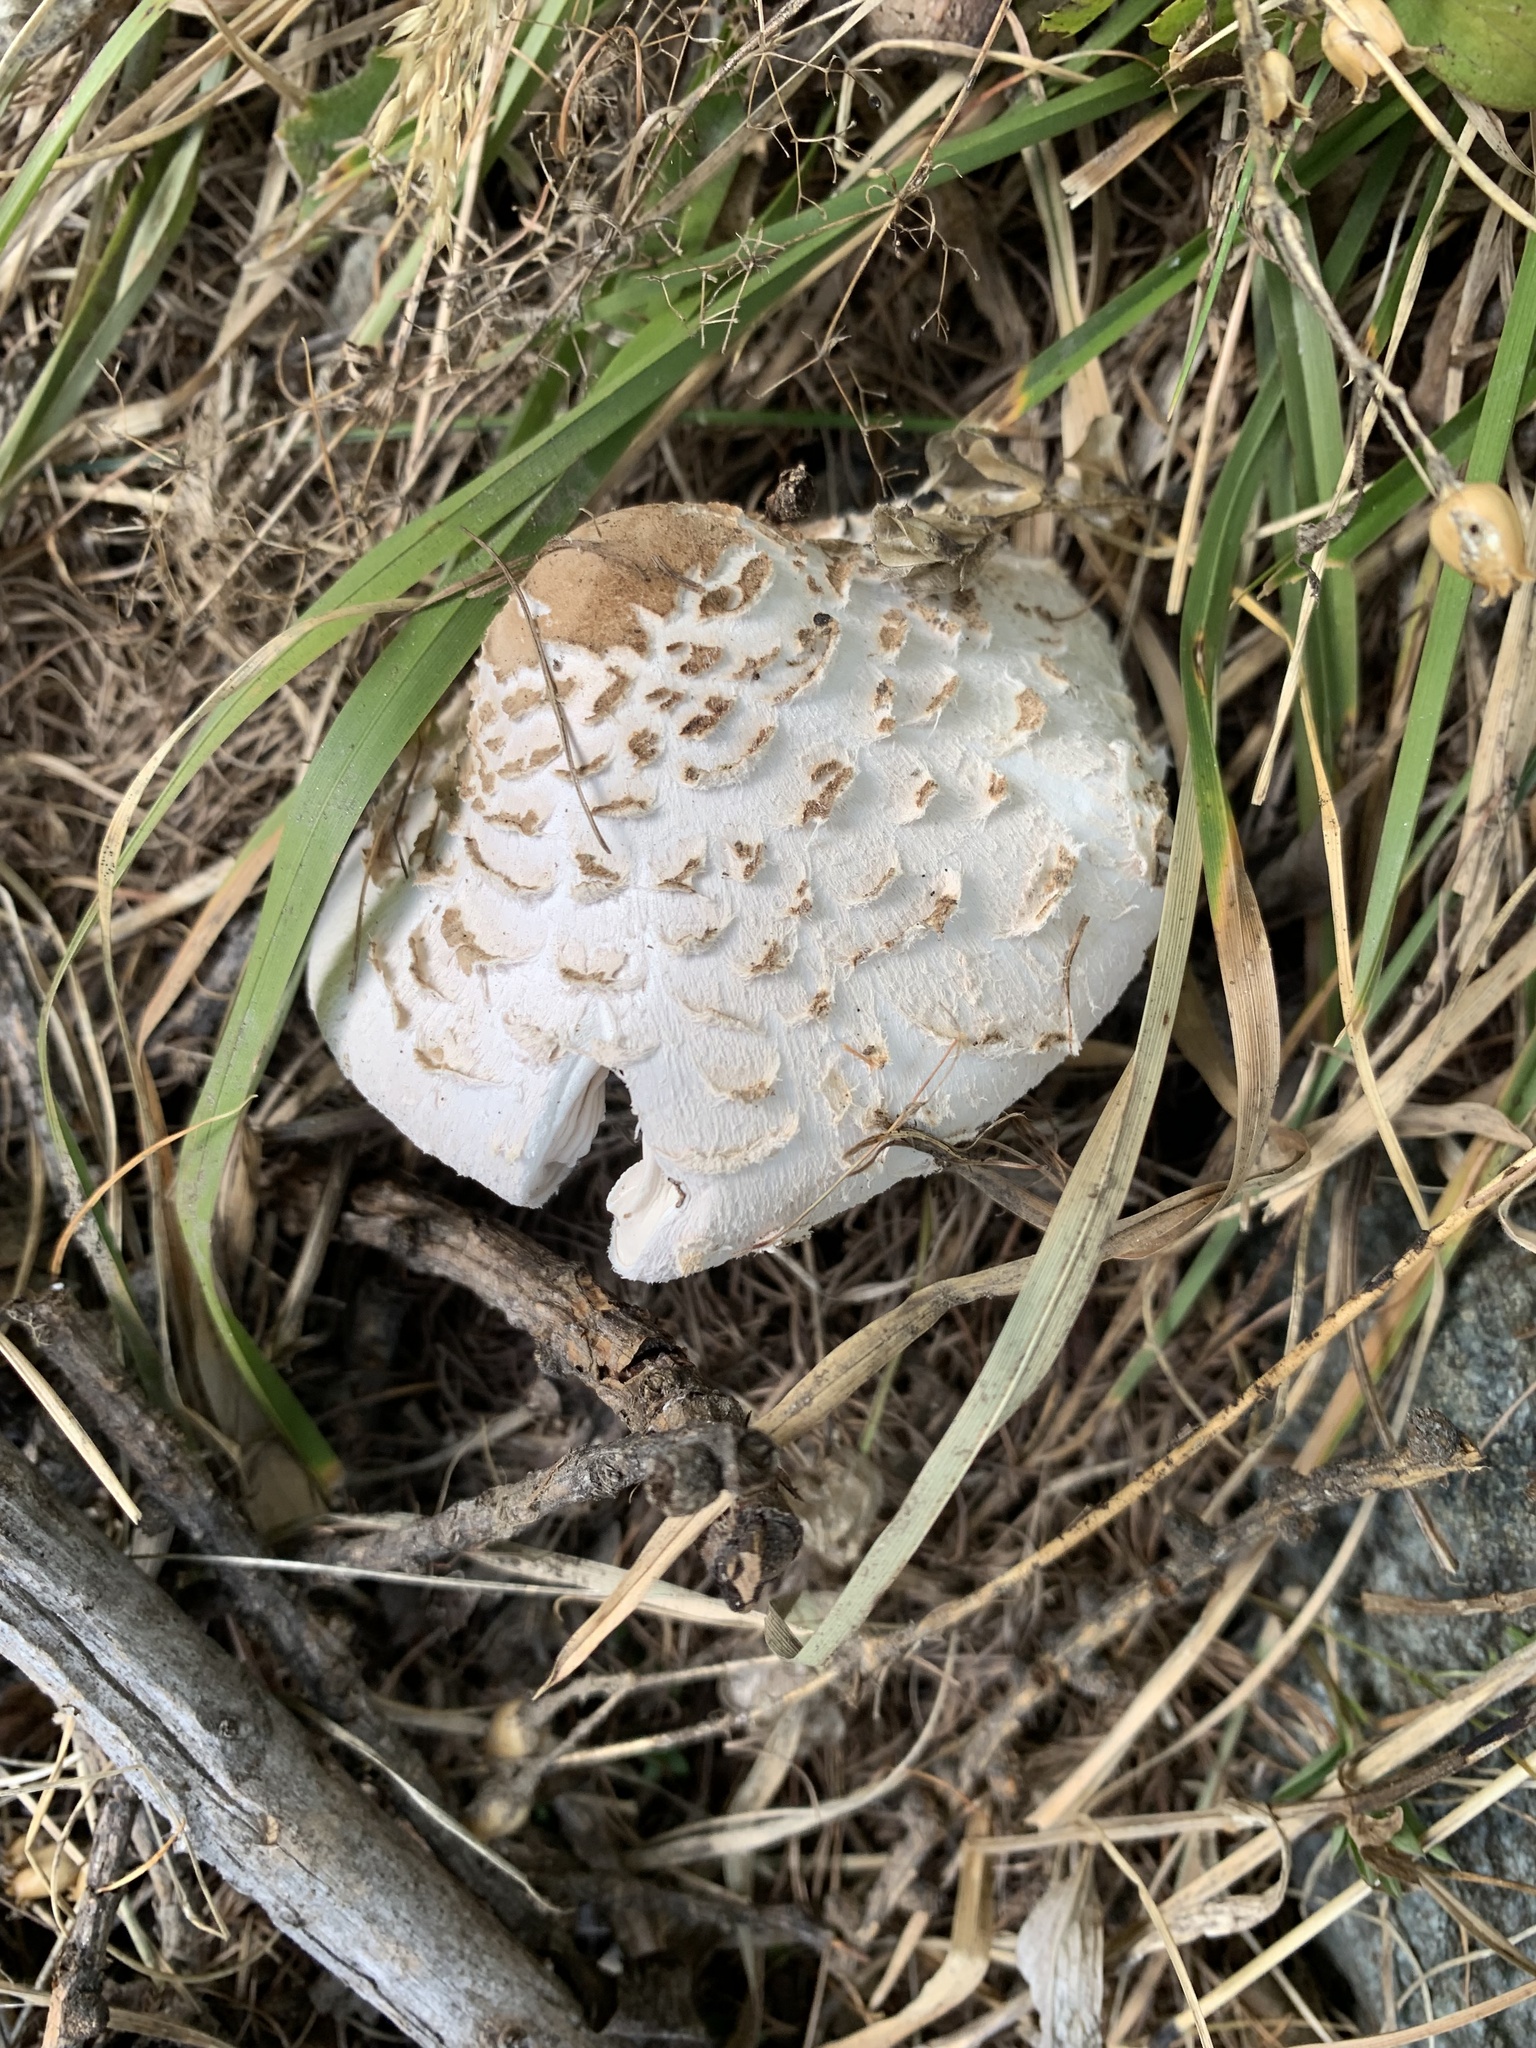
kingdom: Fungi
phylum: Basidiomycota
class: Agaricomycetes
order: Agaricales
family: Agaricaceae
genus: Macrolepiota
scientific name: Macrolepiota procera
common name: Parasol
